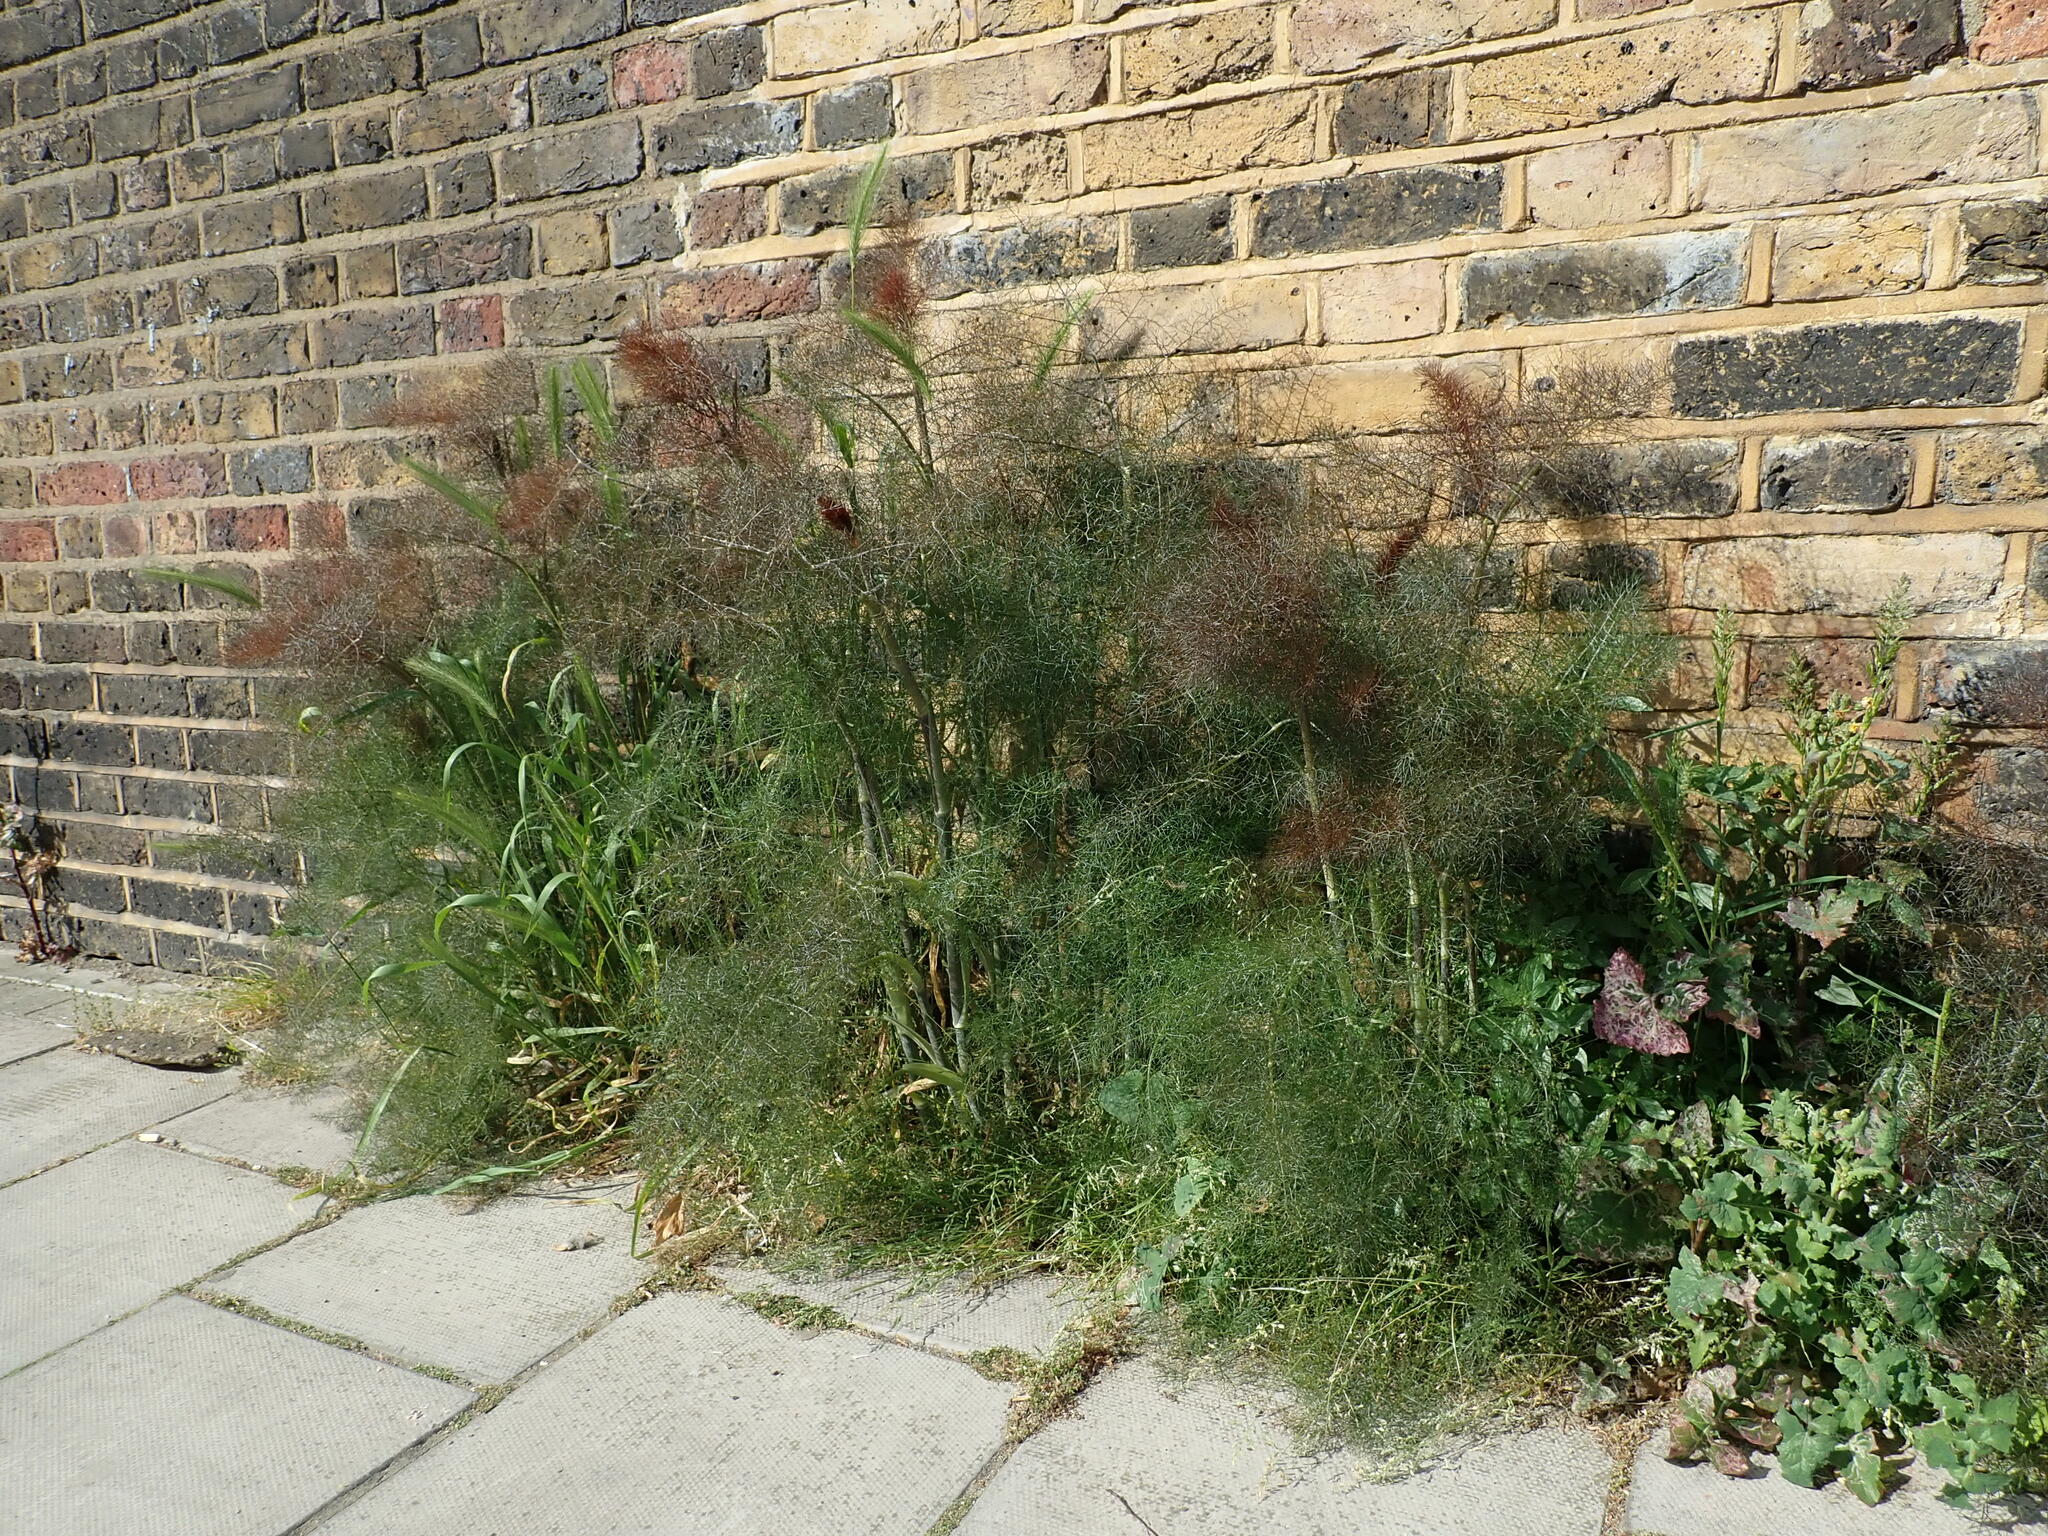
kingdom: Plantae
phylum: Tracheophyta
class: Magnoliopsida
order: Apiales
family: Apiaceae
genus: Foeniculum
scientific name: Foeniculum vulgare
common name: Fennel
